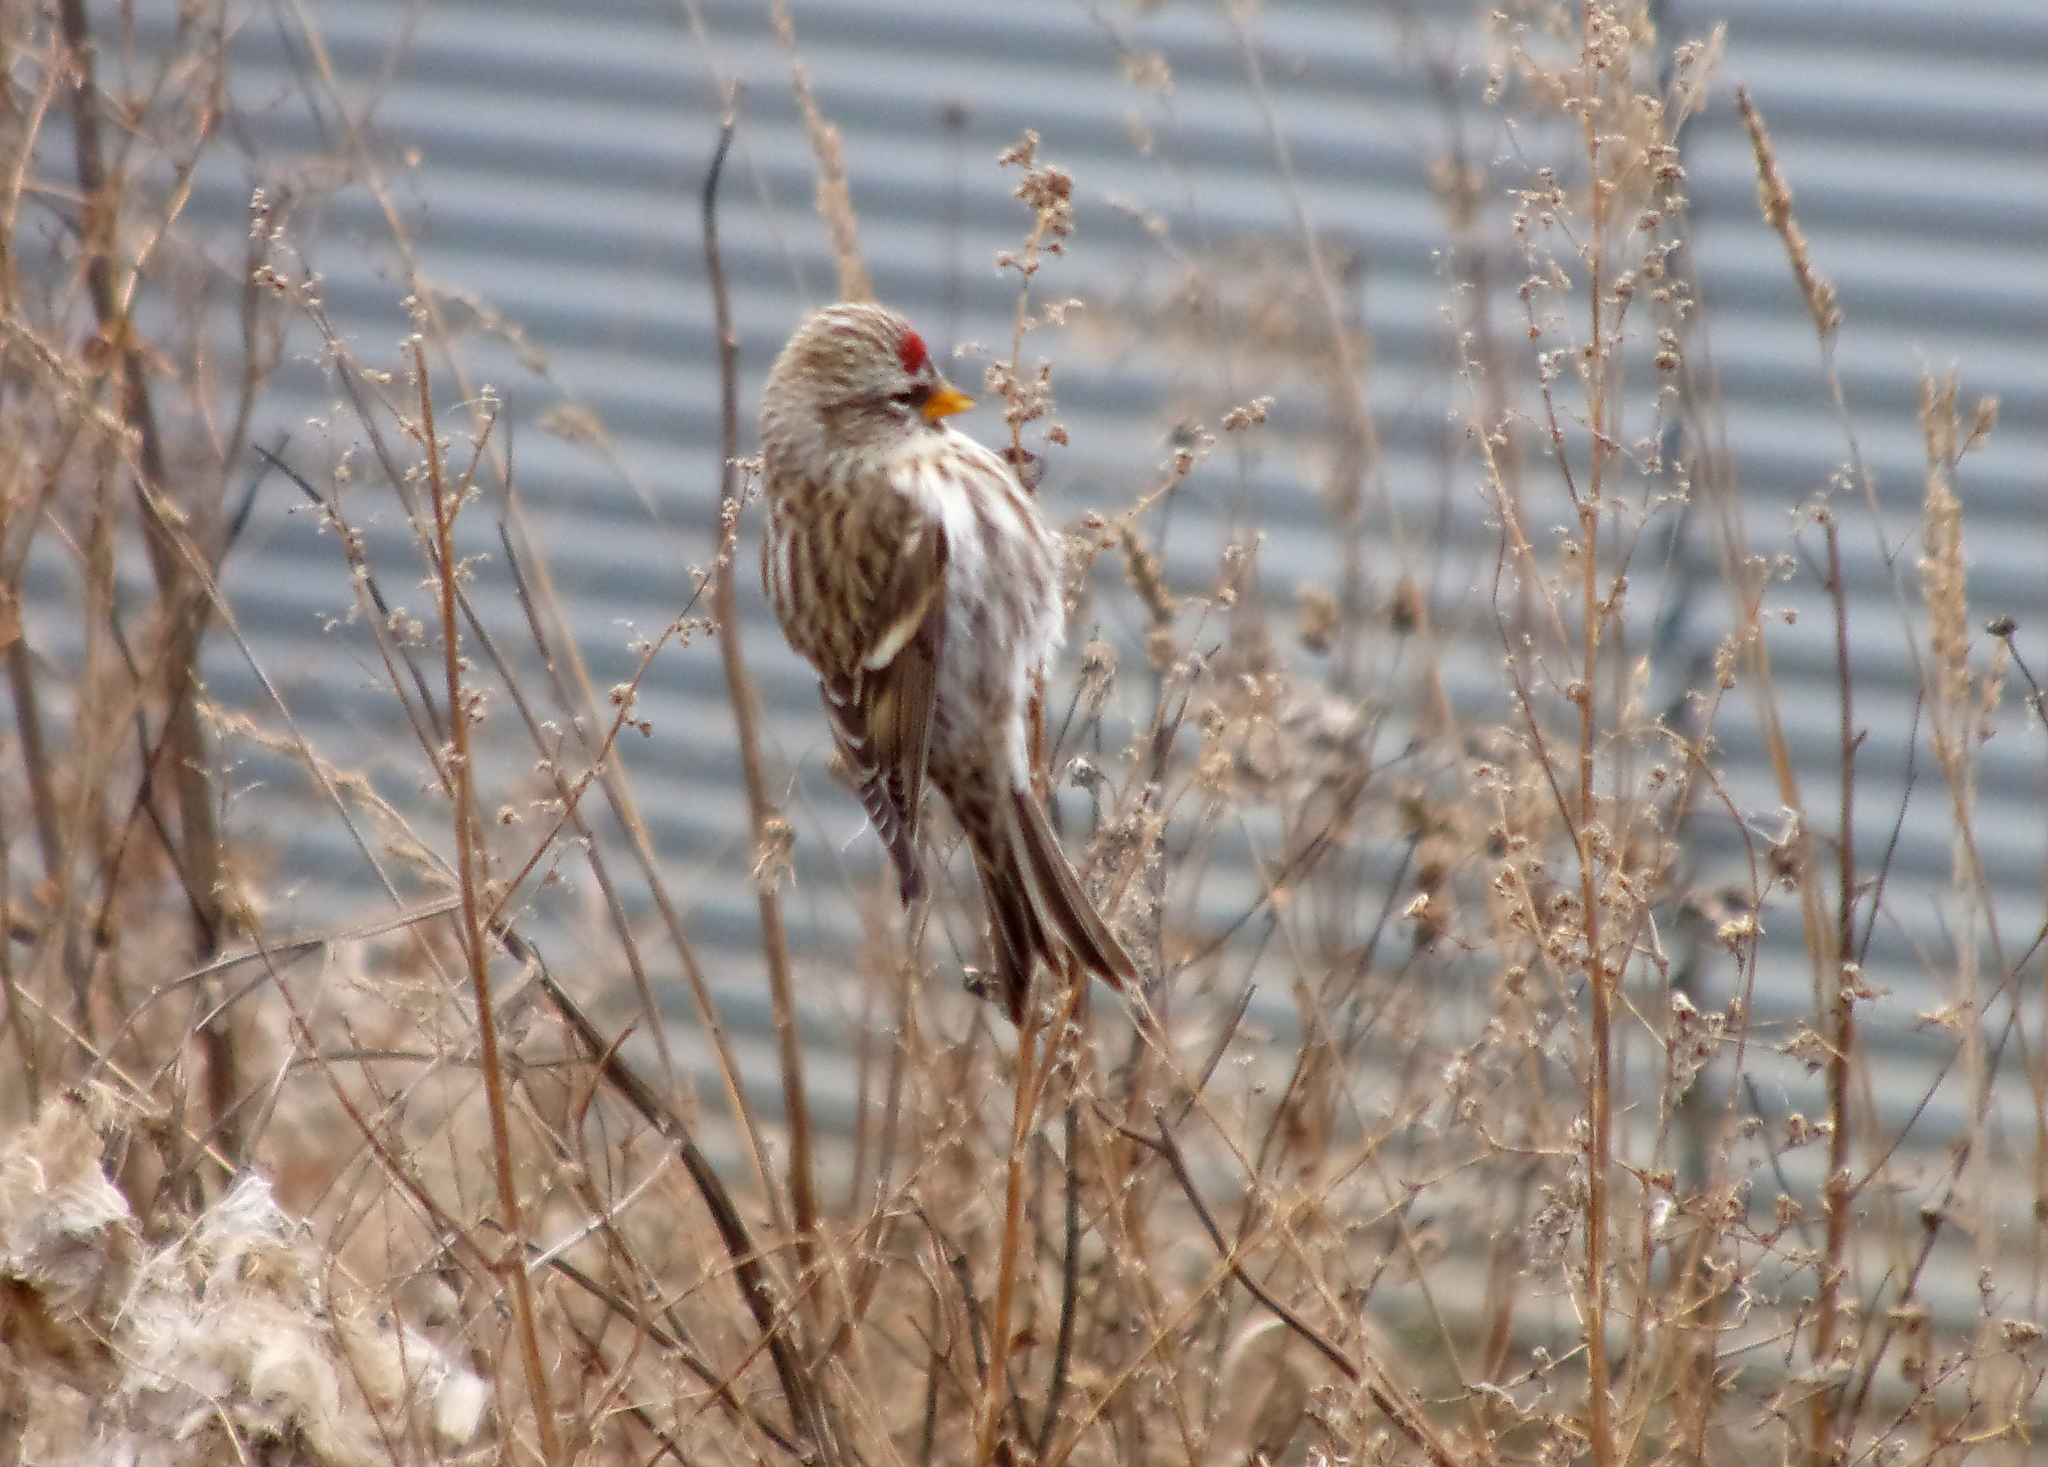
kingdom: Animalia
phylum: Chordata
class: Aves
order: Passeriformes
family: Fringillidae
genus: Acanthis
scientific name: Acanthis flammea
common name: Common redpoll
